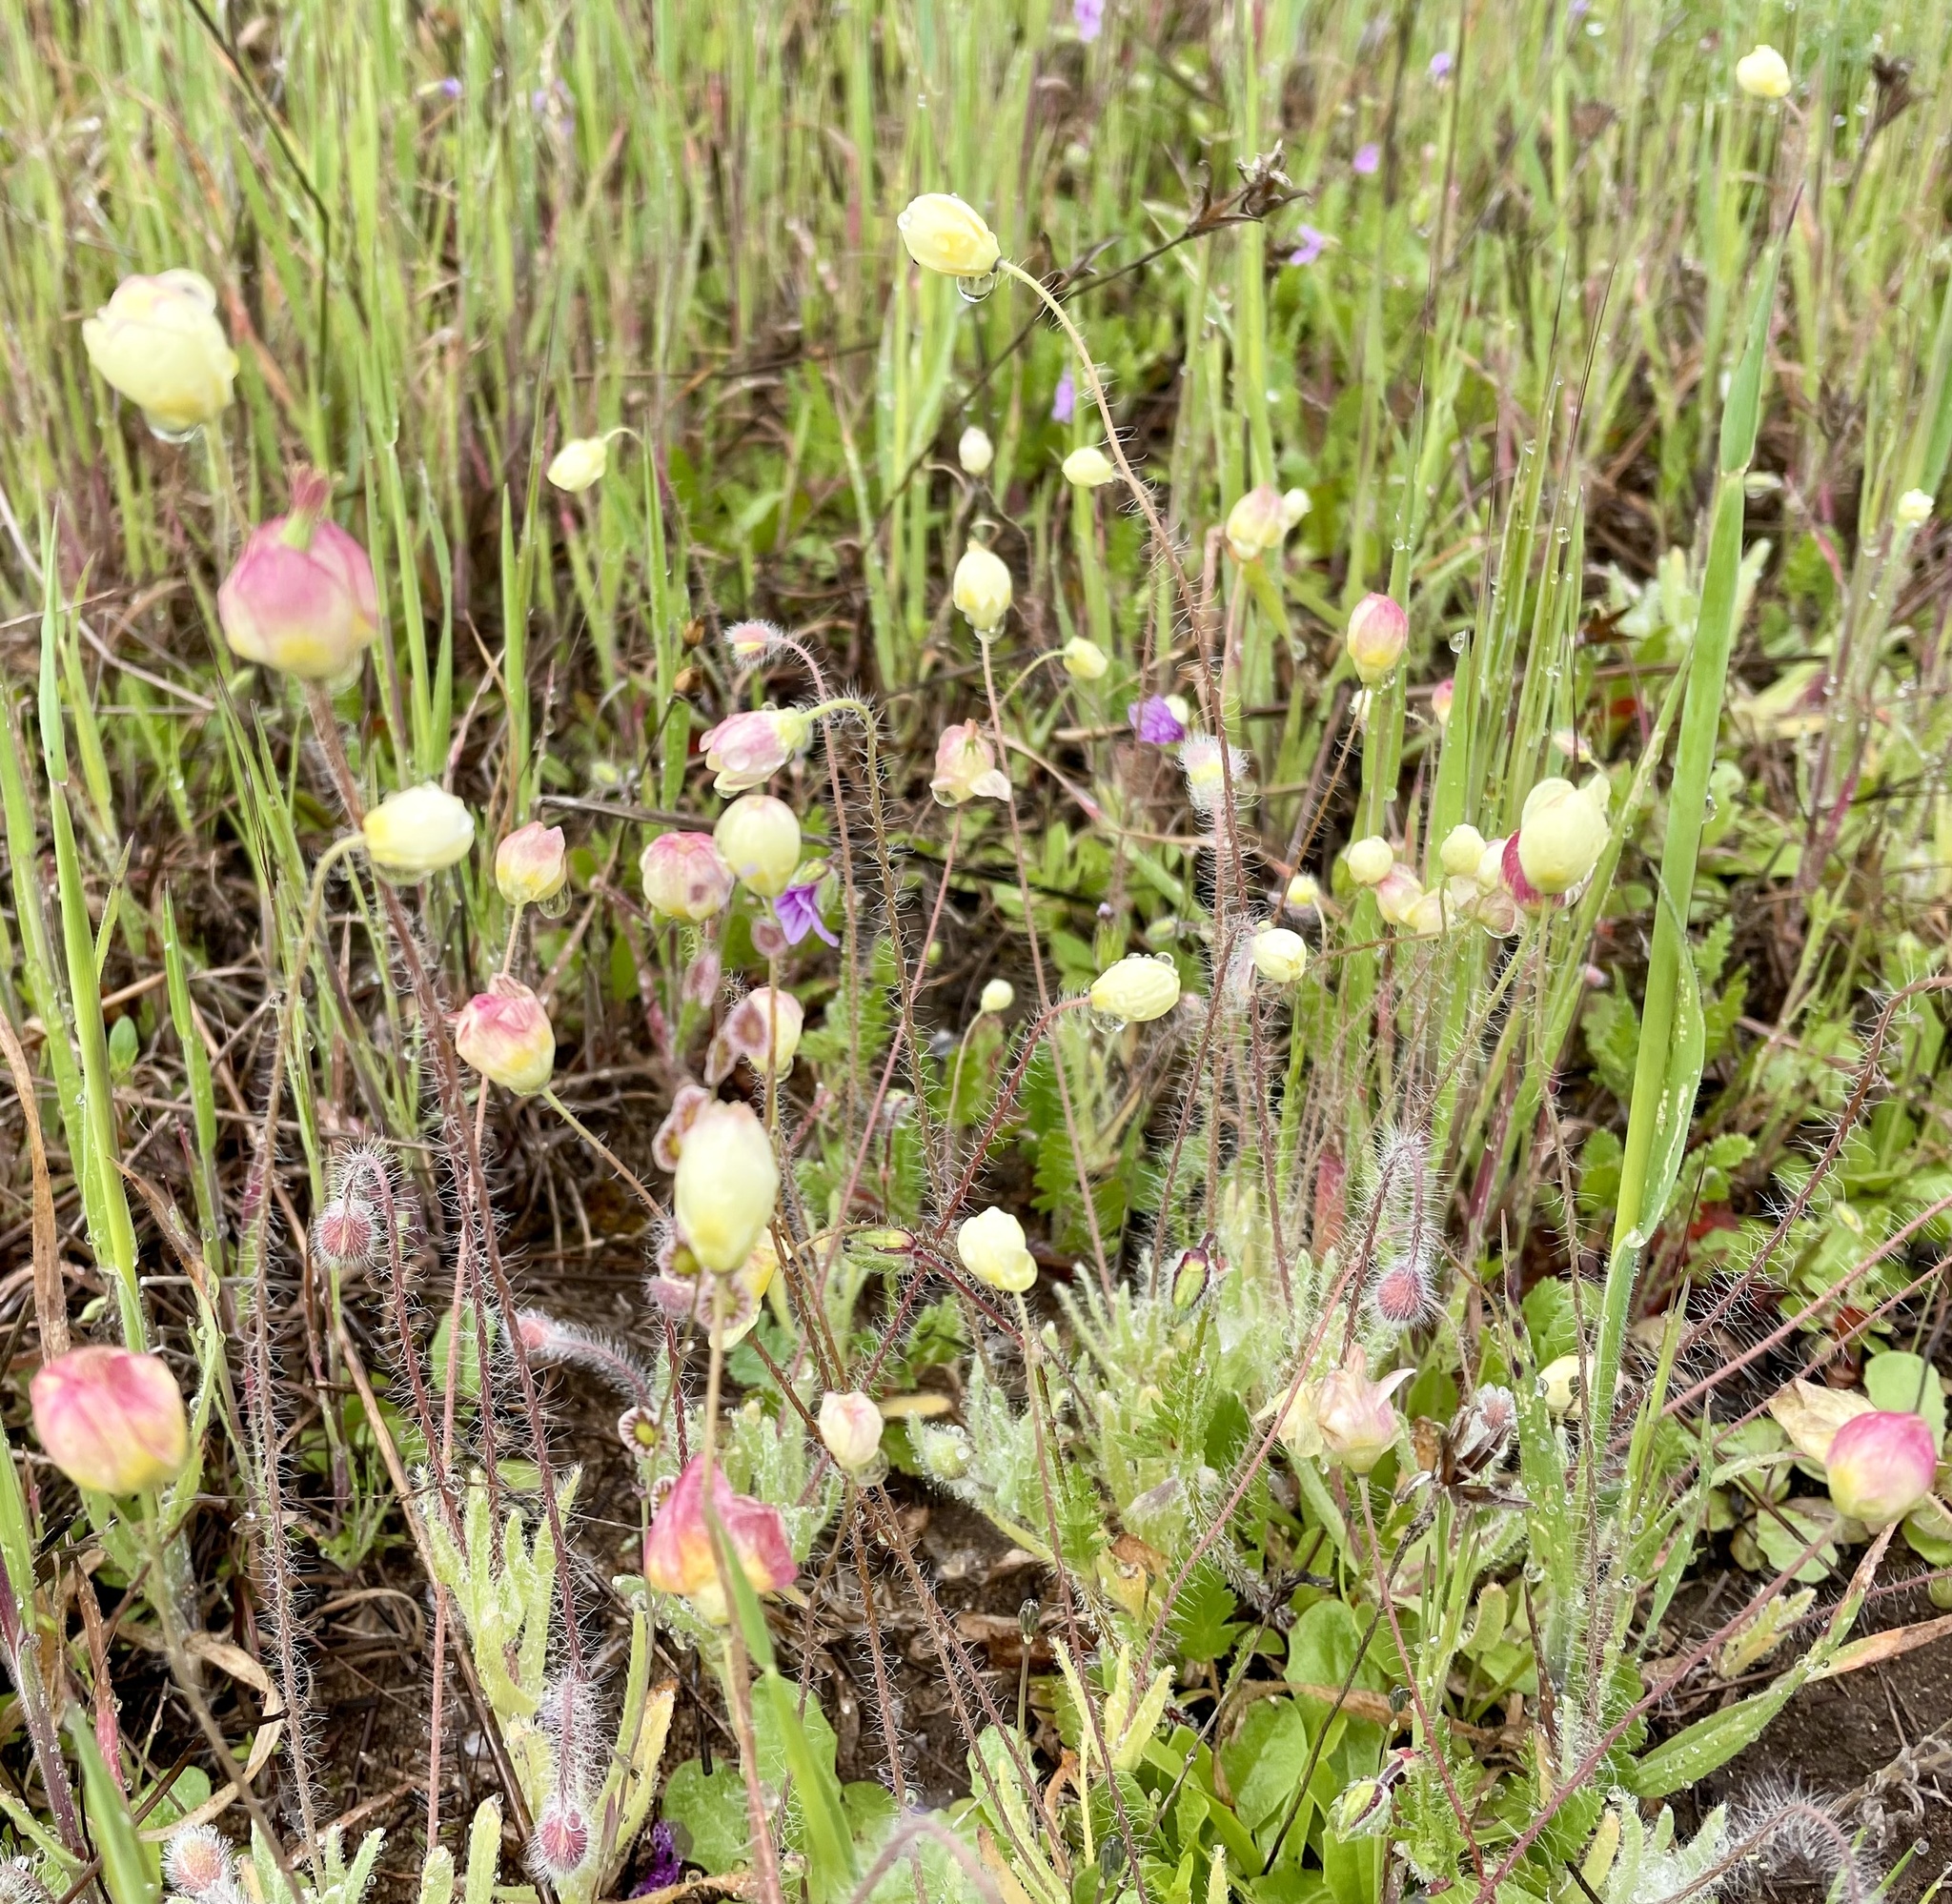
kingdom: Plantae
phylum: Tracheophyta
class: Magnoliopsida
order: Ranunculales
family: Papaveraceae
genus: Platystemon
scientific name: Platystemon californicus
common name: Cream-cups
